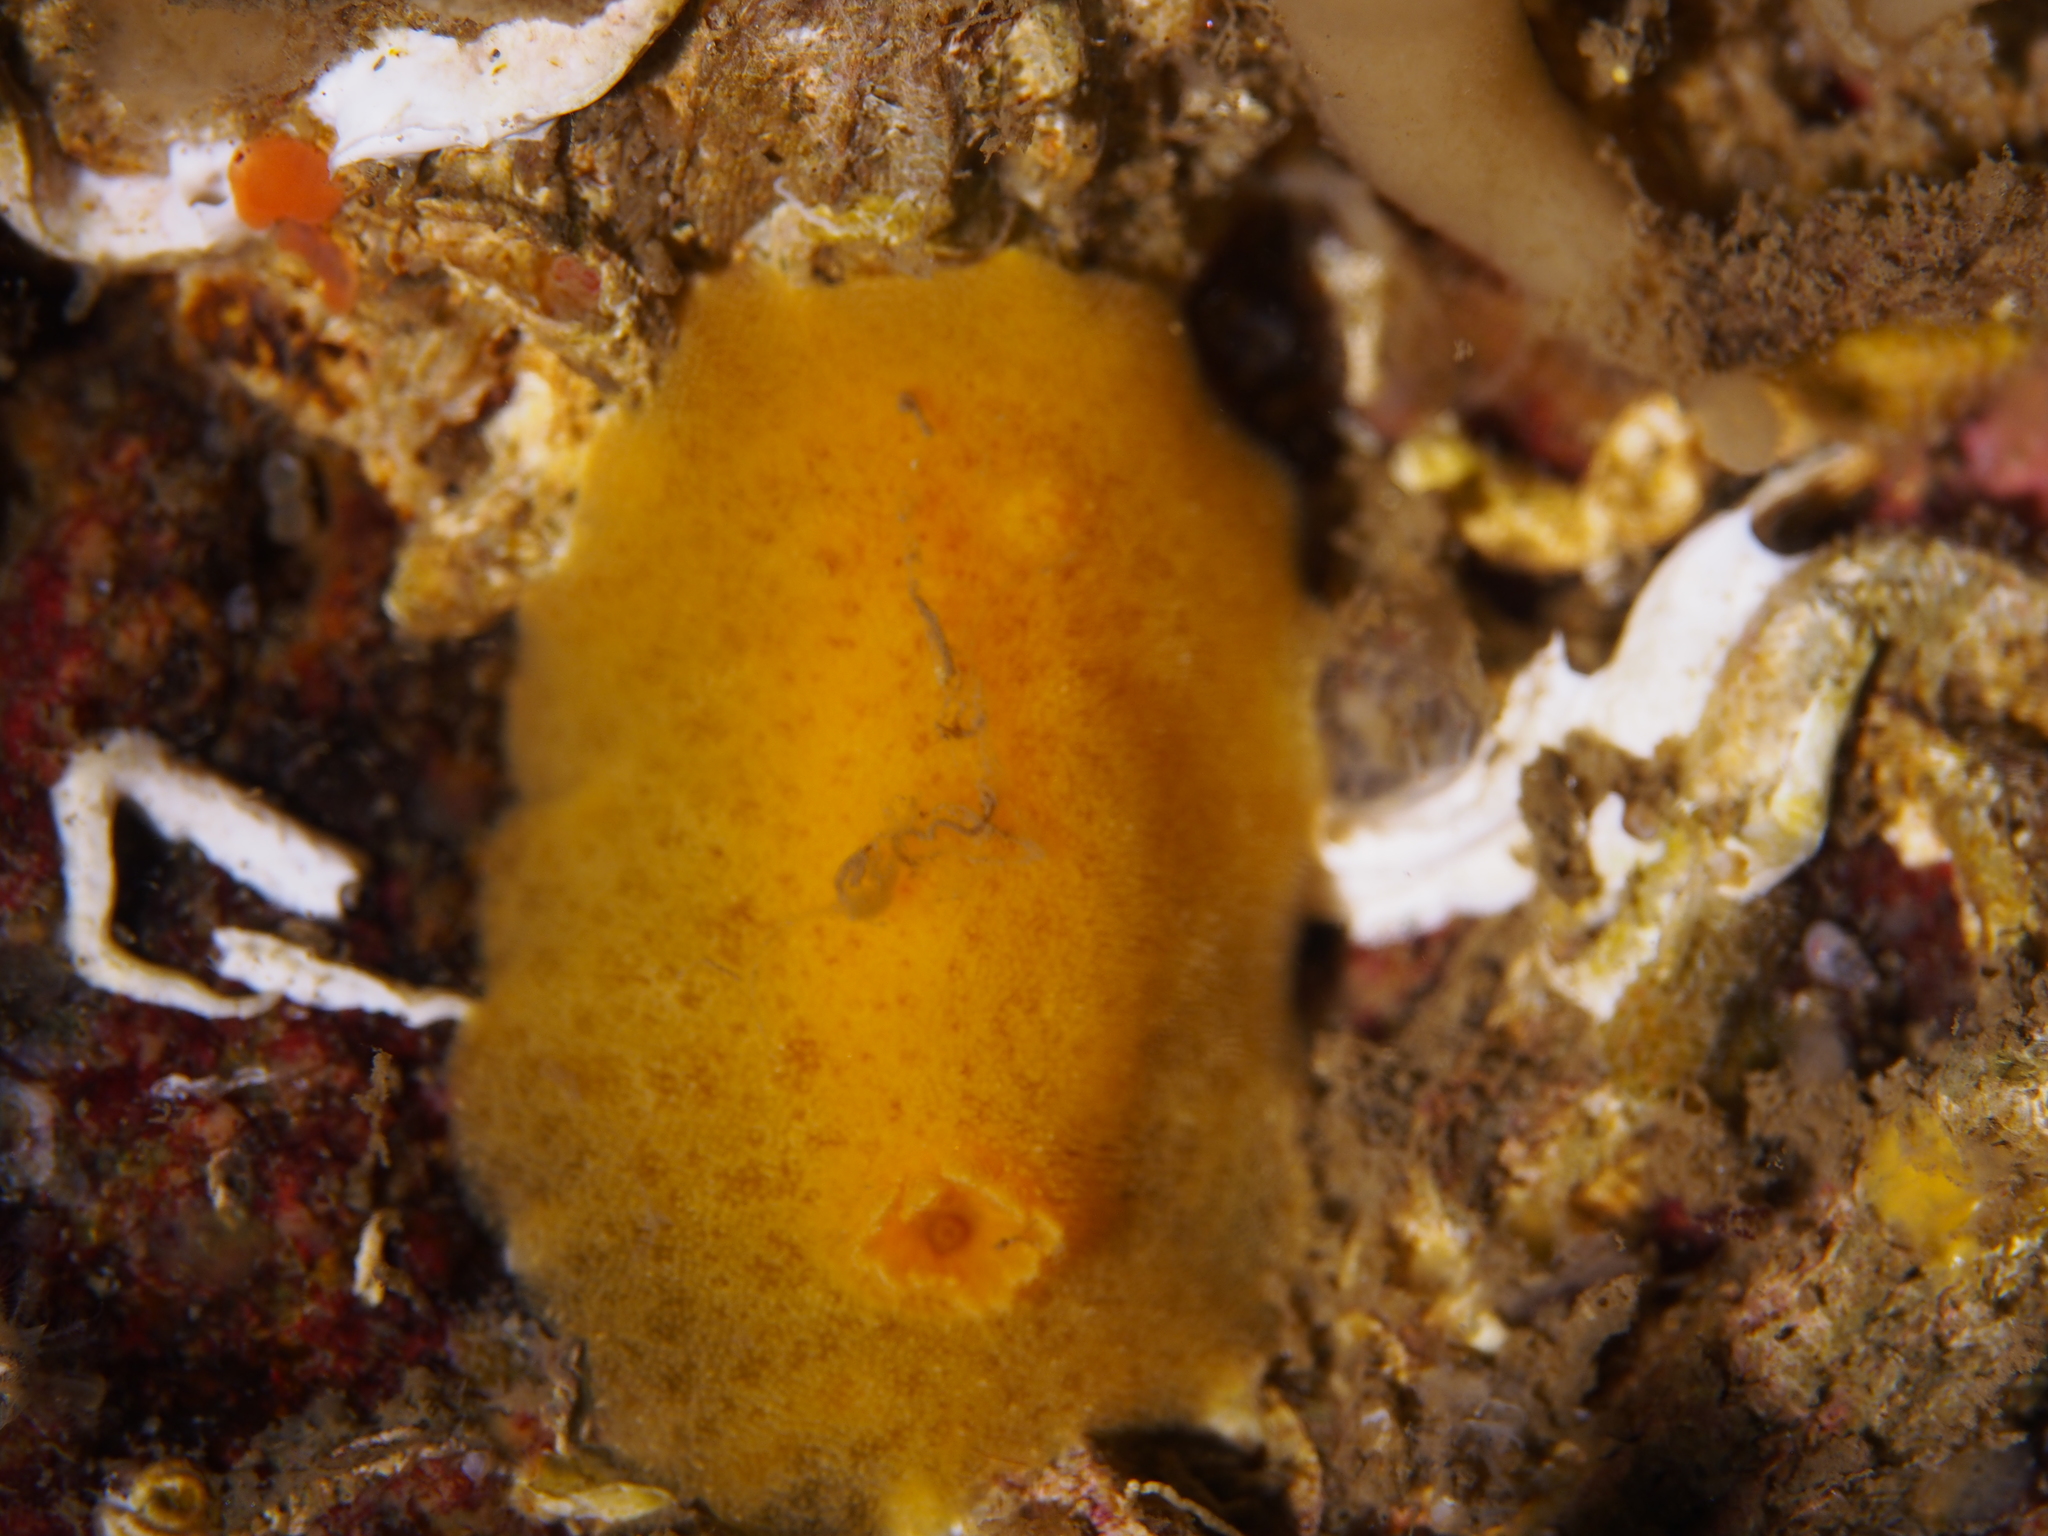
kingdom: Animalia
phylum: Mollusca
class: Gastropoda
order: Nudibranchia
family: Discodorididae
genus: Jorunna
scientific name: Jorunna tomentosa
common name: Grey sea slug
